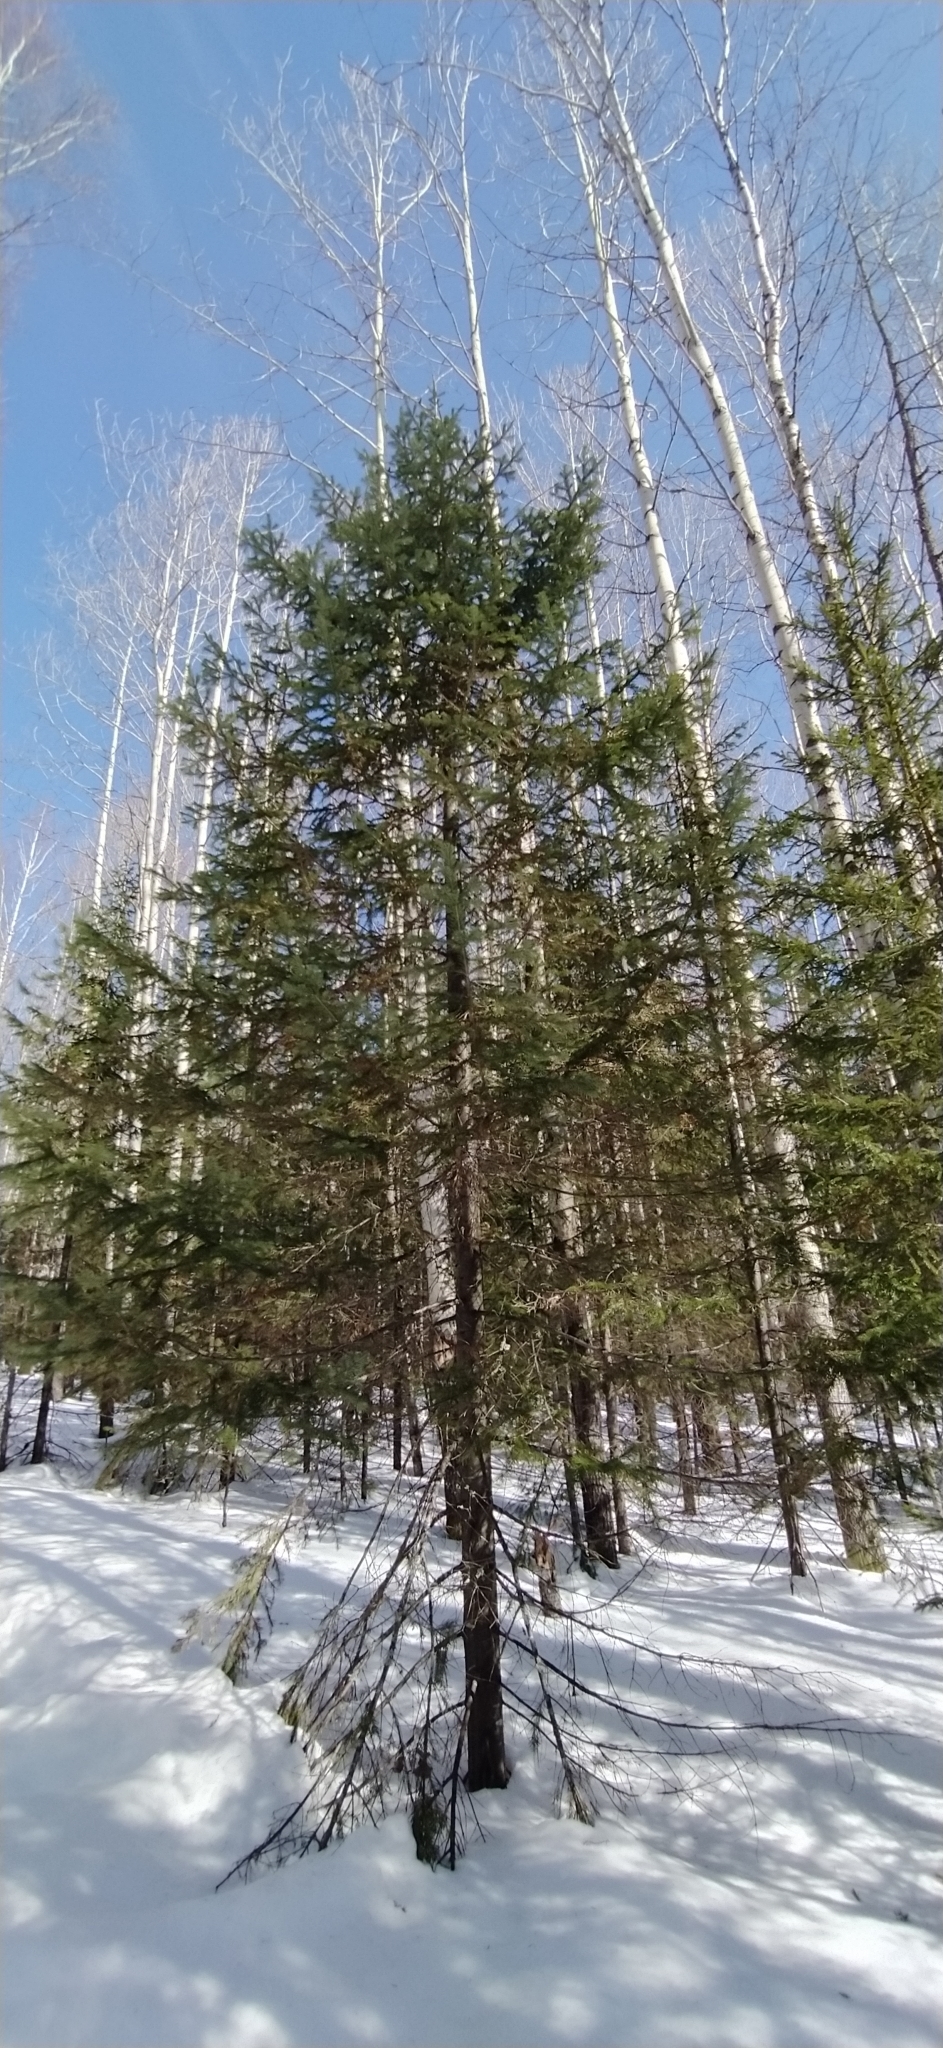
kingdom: Plantae
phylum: Tracheophyta
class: Pinopsida
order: Pinales
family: Pinaceae
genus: Abies
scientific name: Abies sibirica
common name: Siberian fir
